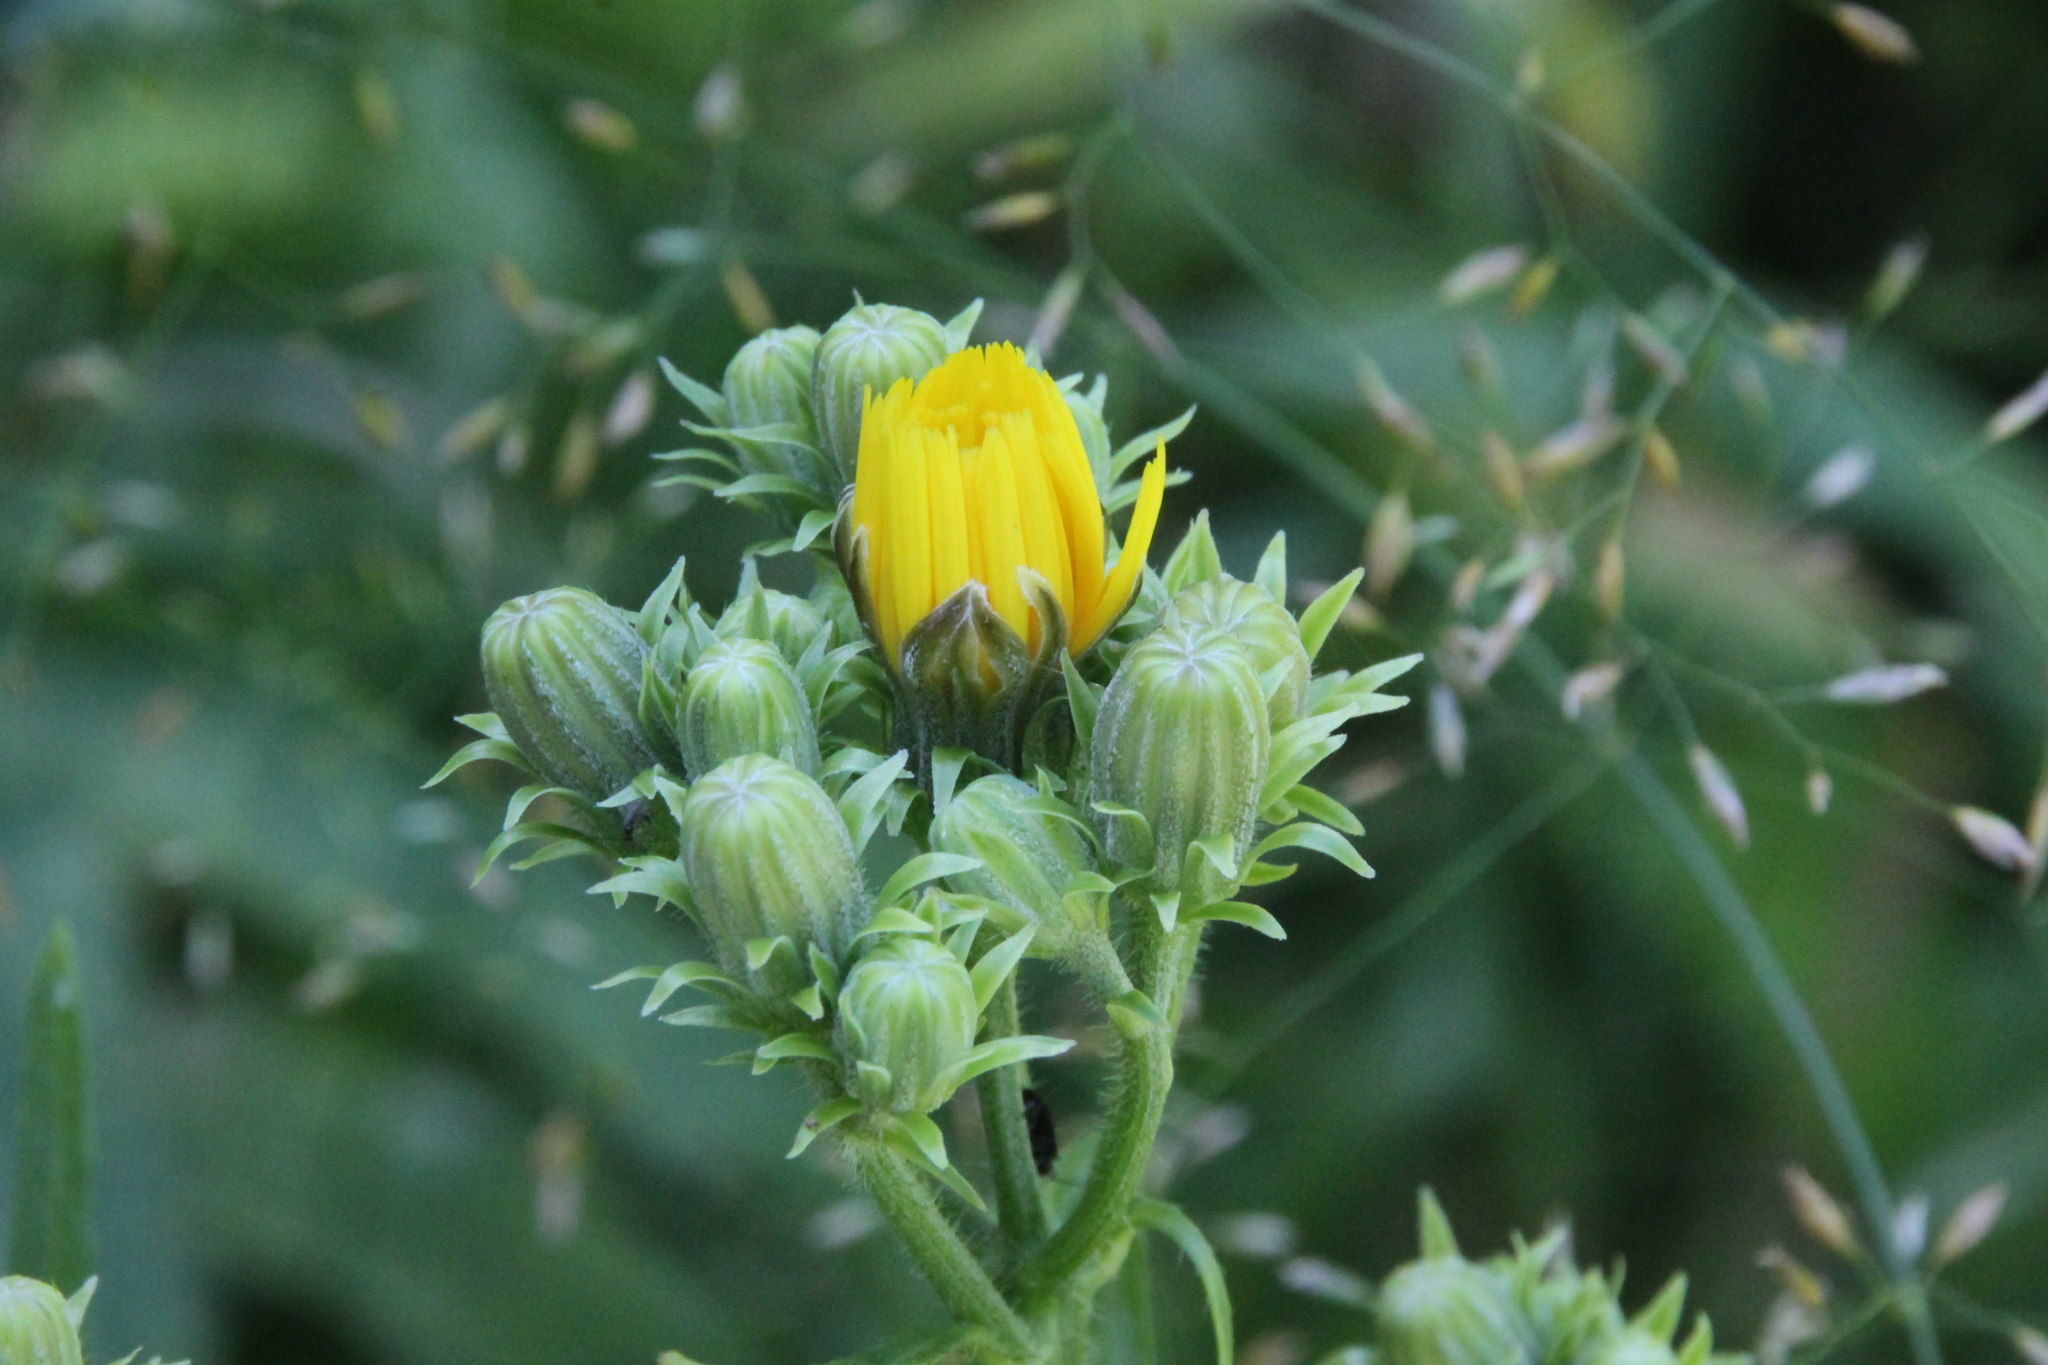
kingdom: Plantae
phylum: Tracheophyta
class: Magnoliopsida
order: Asterales
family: Asteraceae
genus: Picris
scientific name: Picris hieracioides
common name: Hawkweed oxtongue
